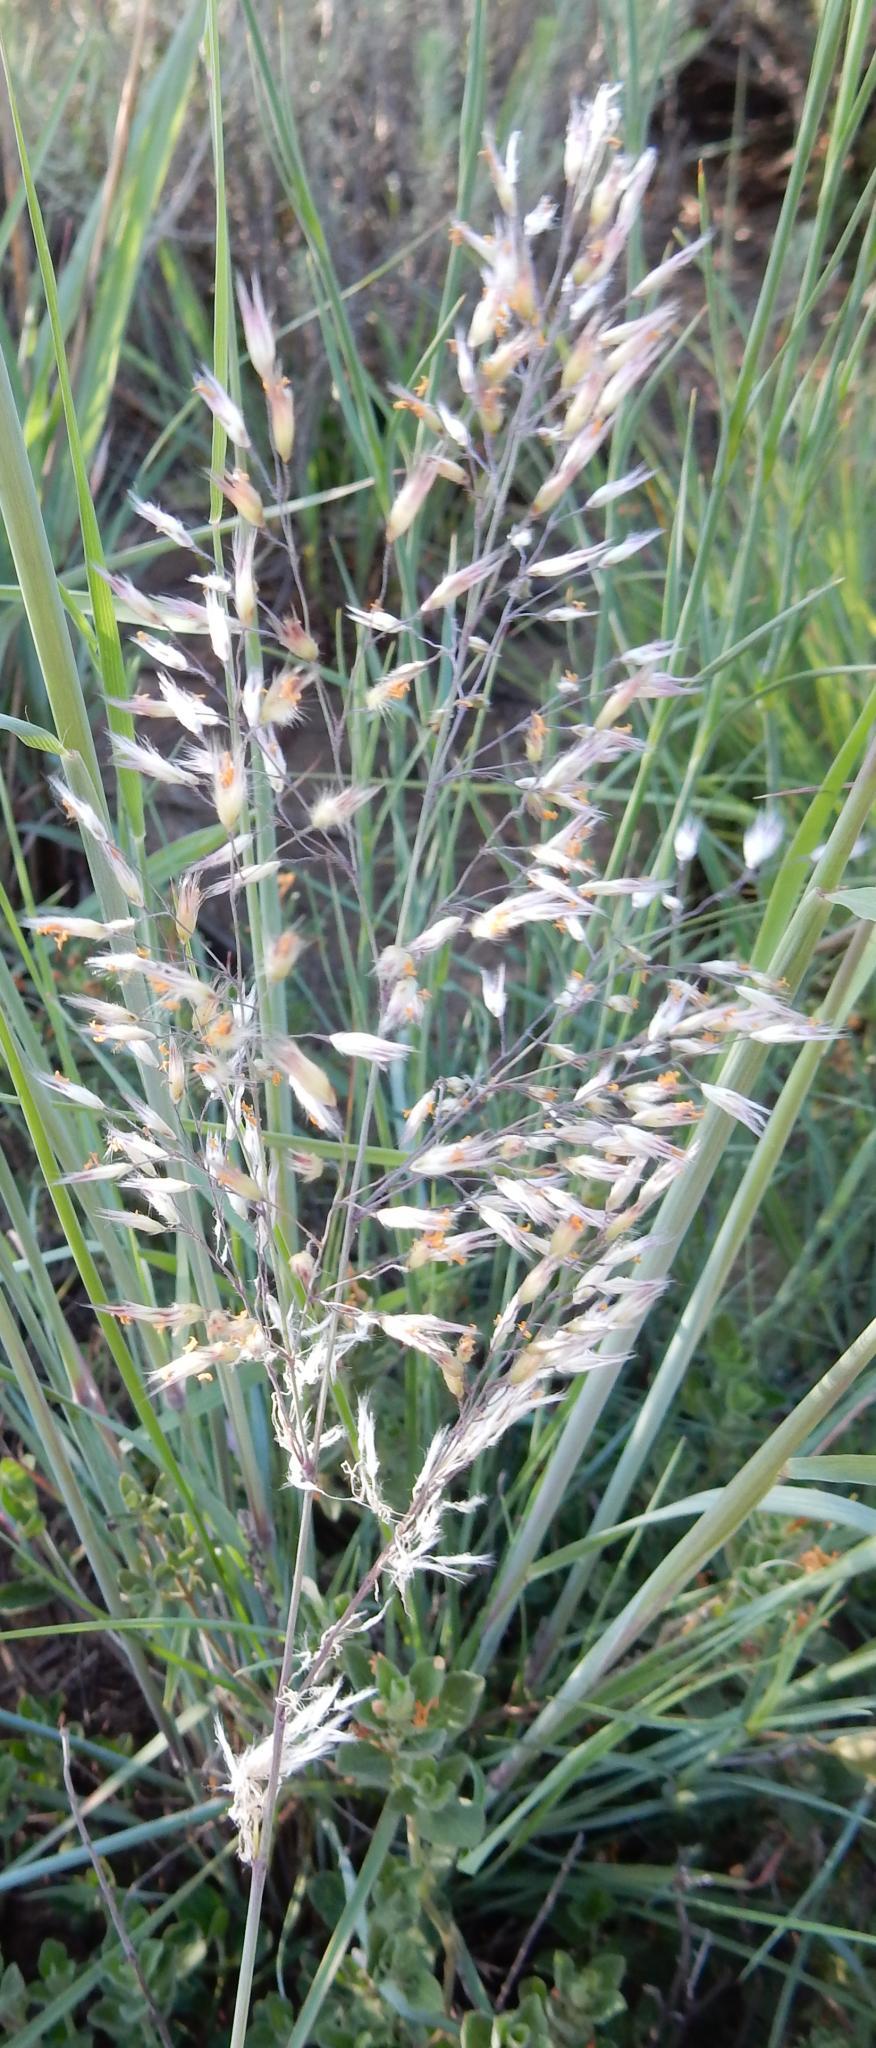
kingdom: Plantae
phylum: Tracheophyta
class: Liliopsida
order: Poales
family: Poaceae
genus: Melinis
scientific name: Melinis nerviglumis
